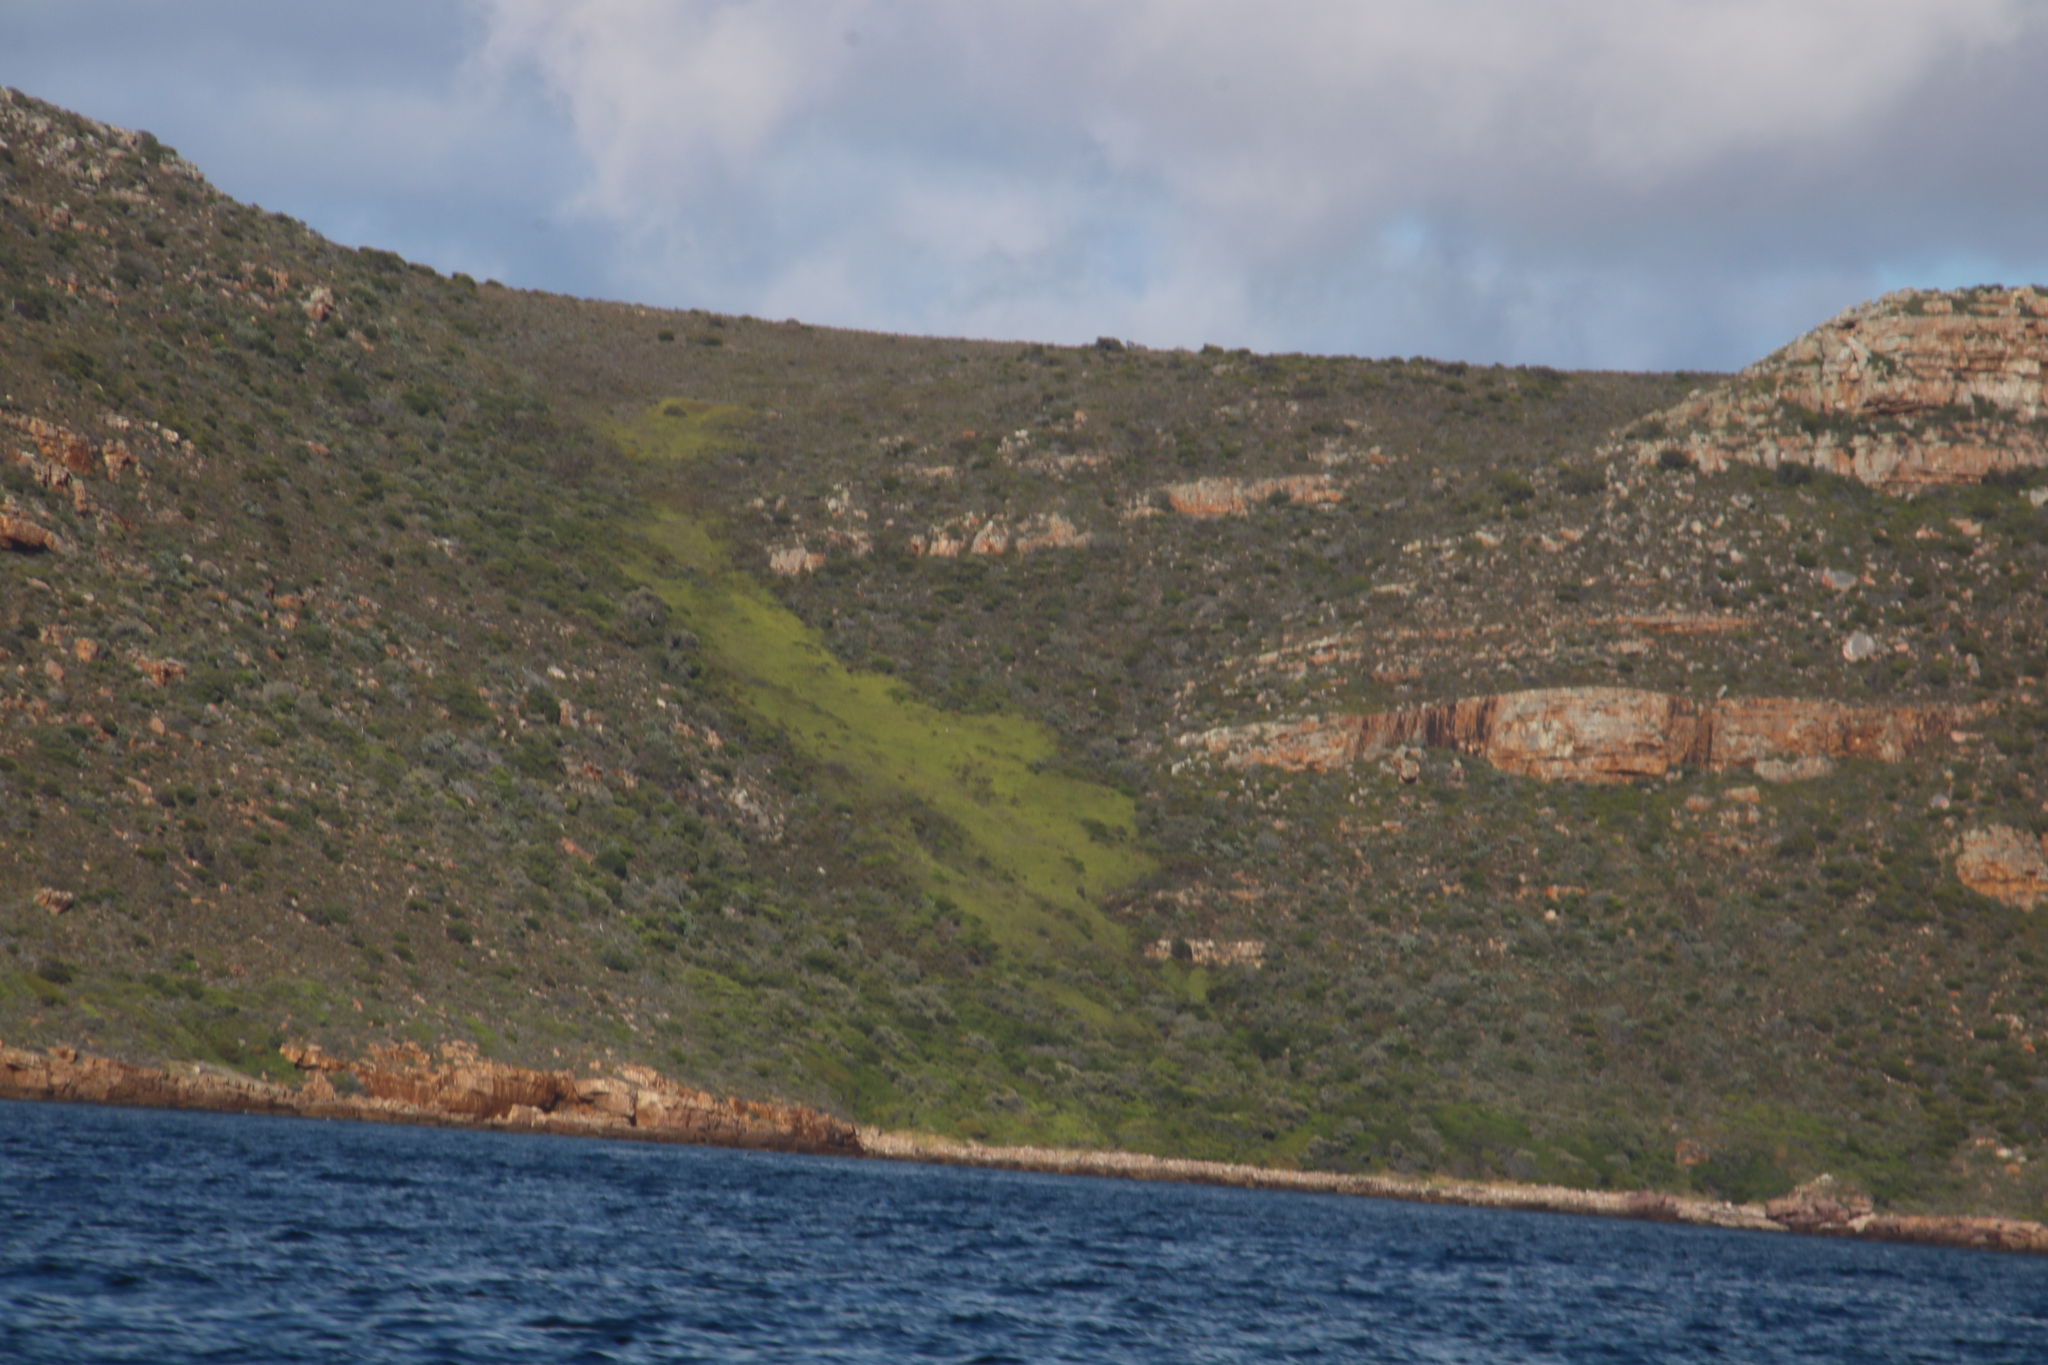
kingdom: Plantae
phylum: Tracheophyta
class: Polypodiopsida
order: Gleicheniales
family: Gleicheniaceae
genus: Gleichenia
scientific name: Gleichenia polypodioides
